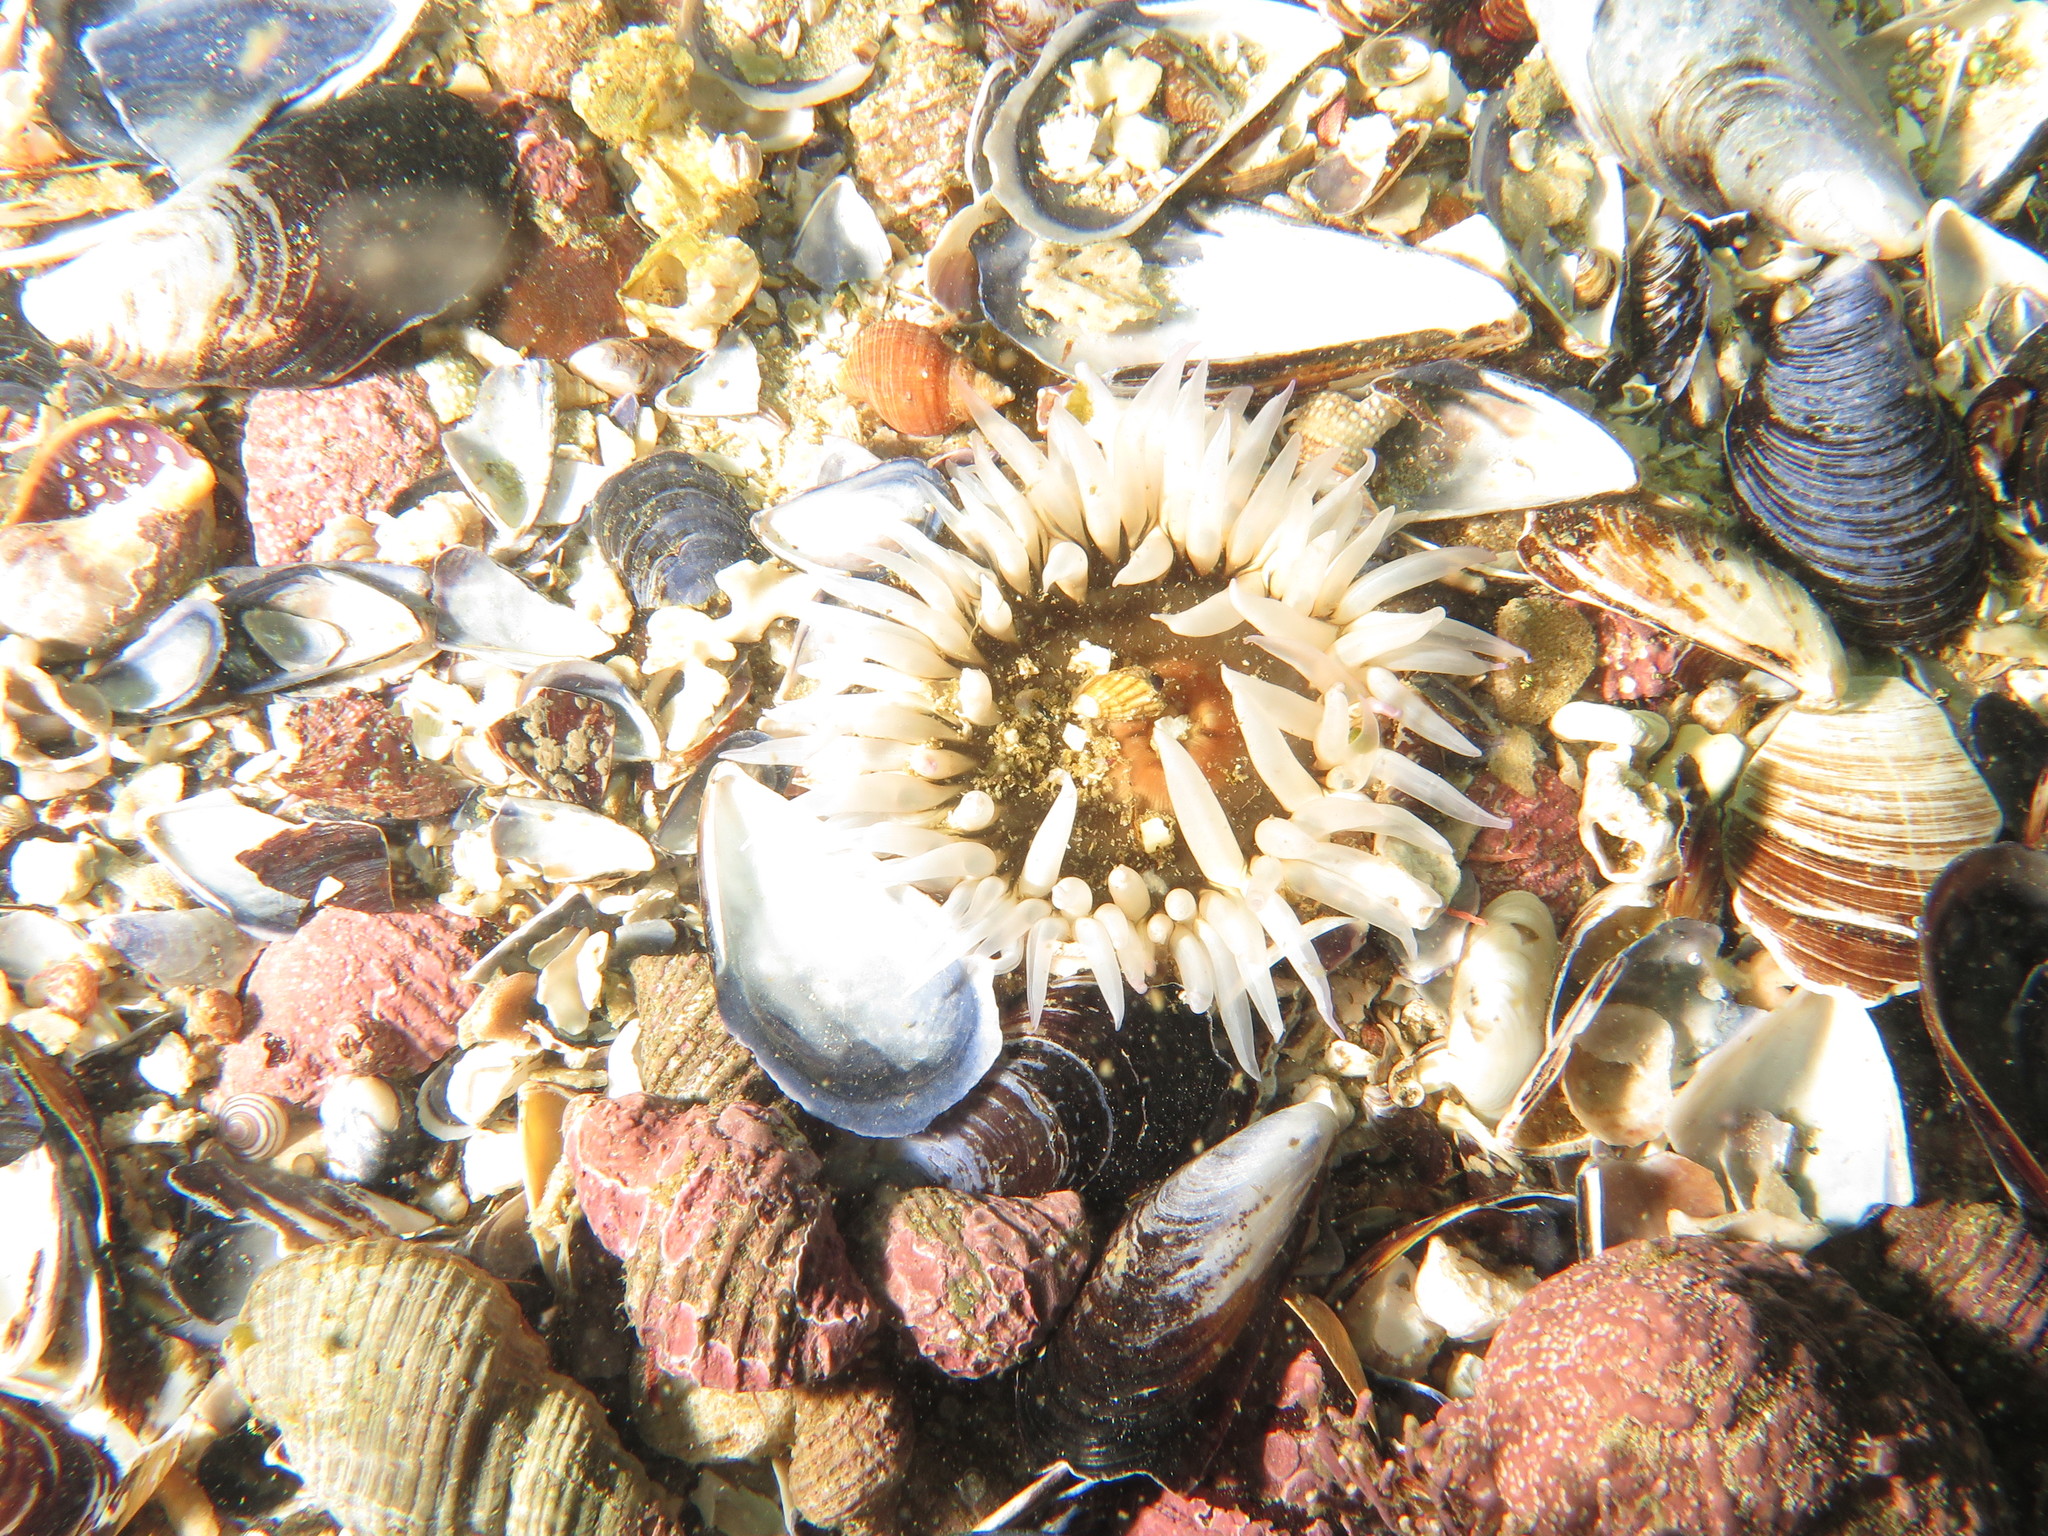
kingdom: Animalia
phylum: Cnidaria
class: Anthozoa
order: Actiniaria
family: Actiniidae
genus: Bunodactis
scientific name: Bunodactis reynaudi
